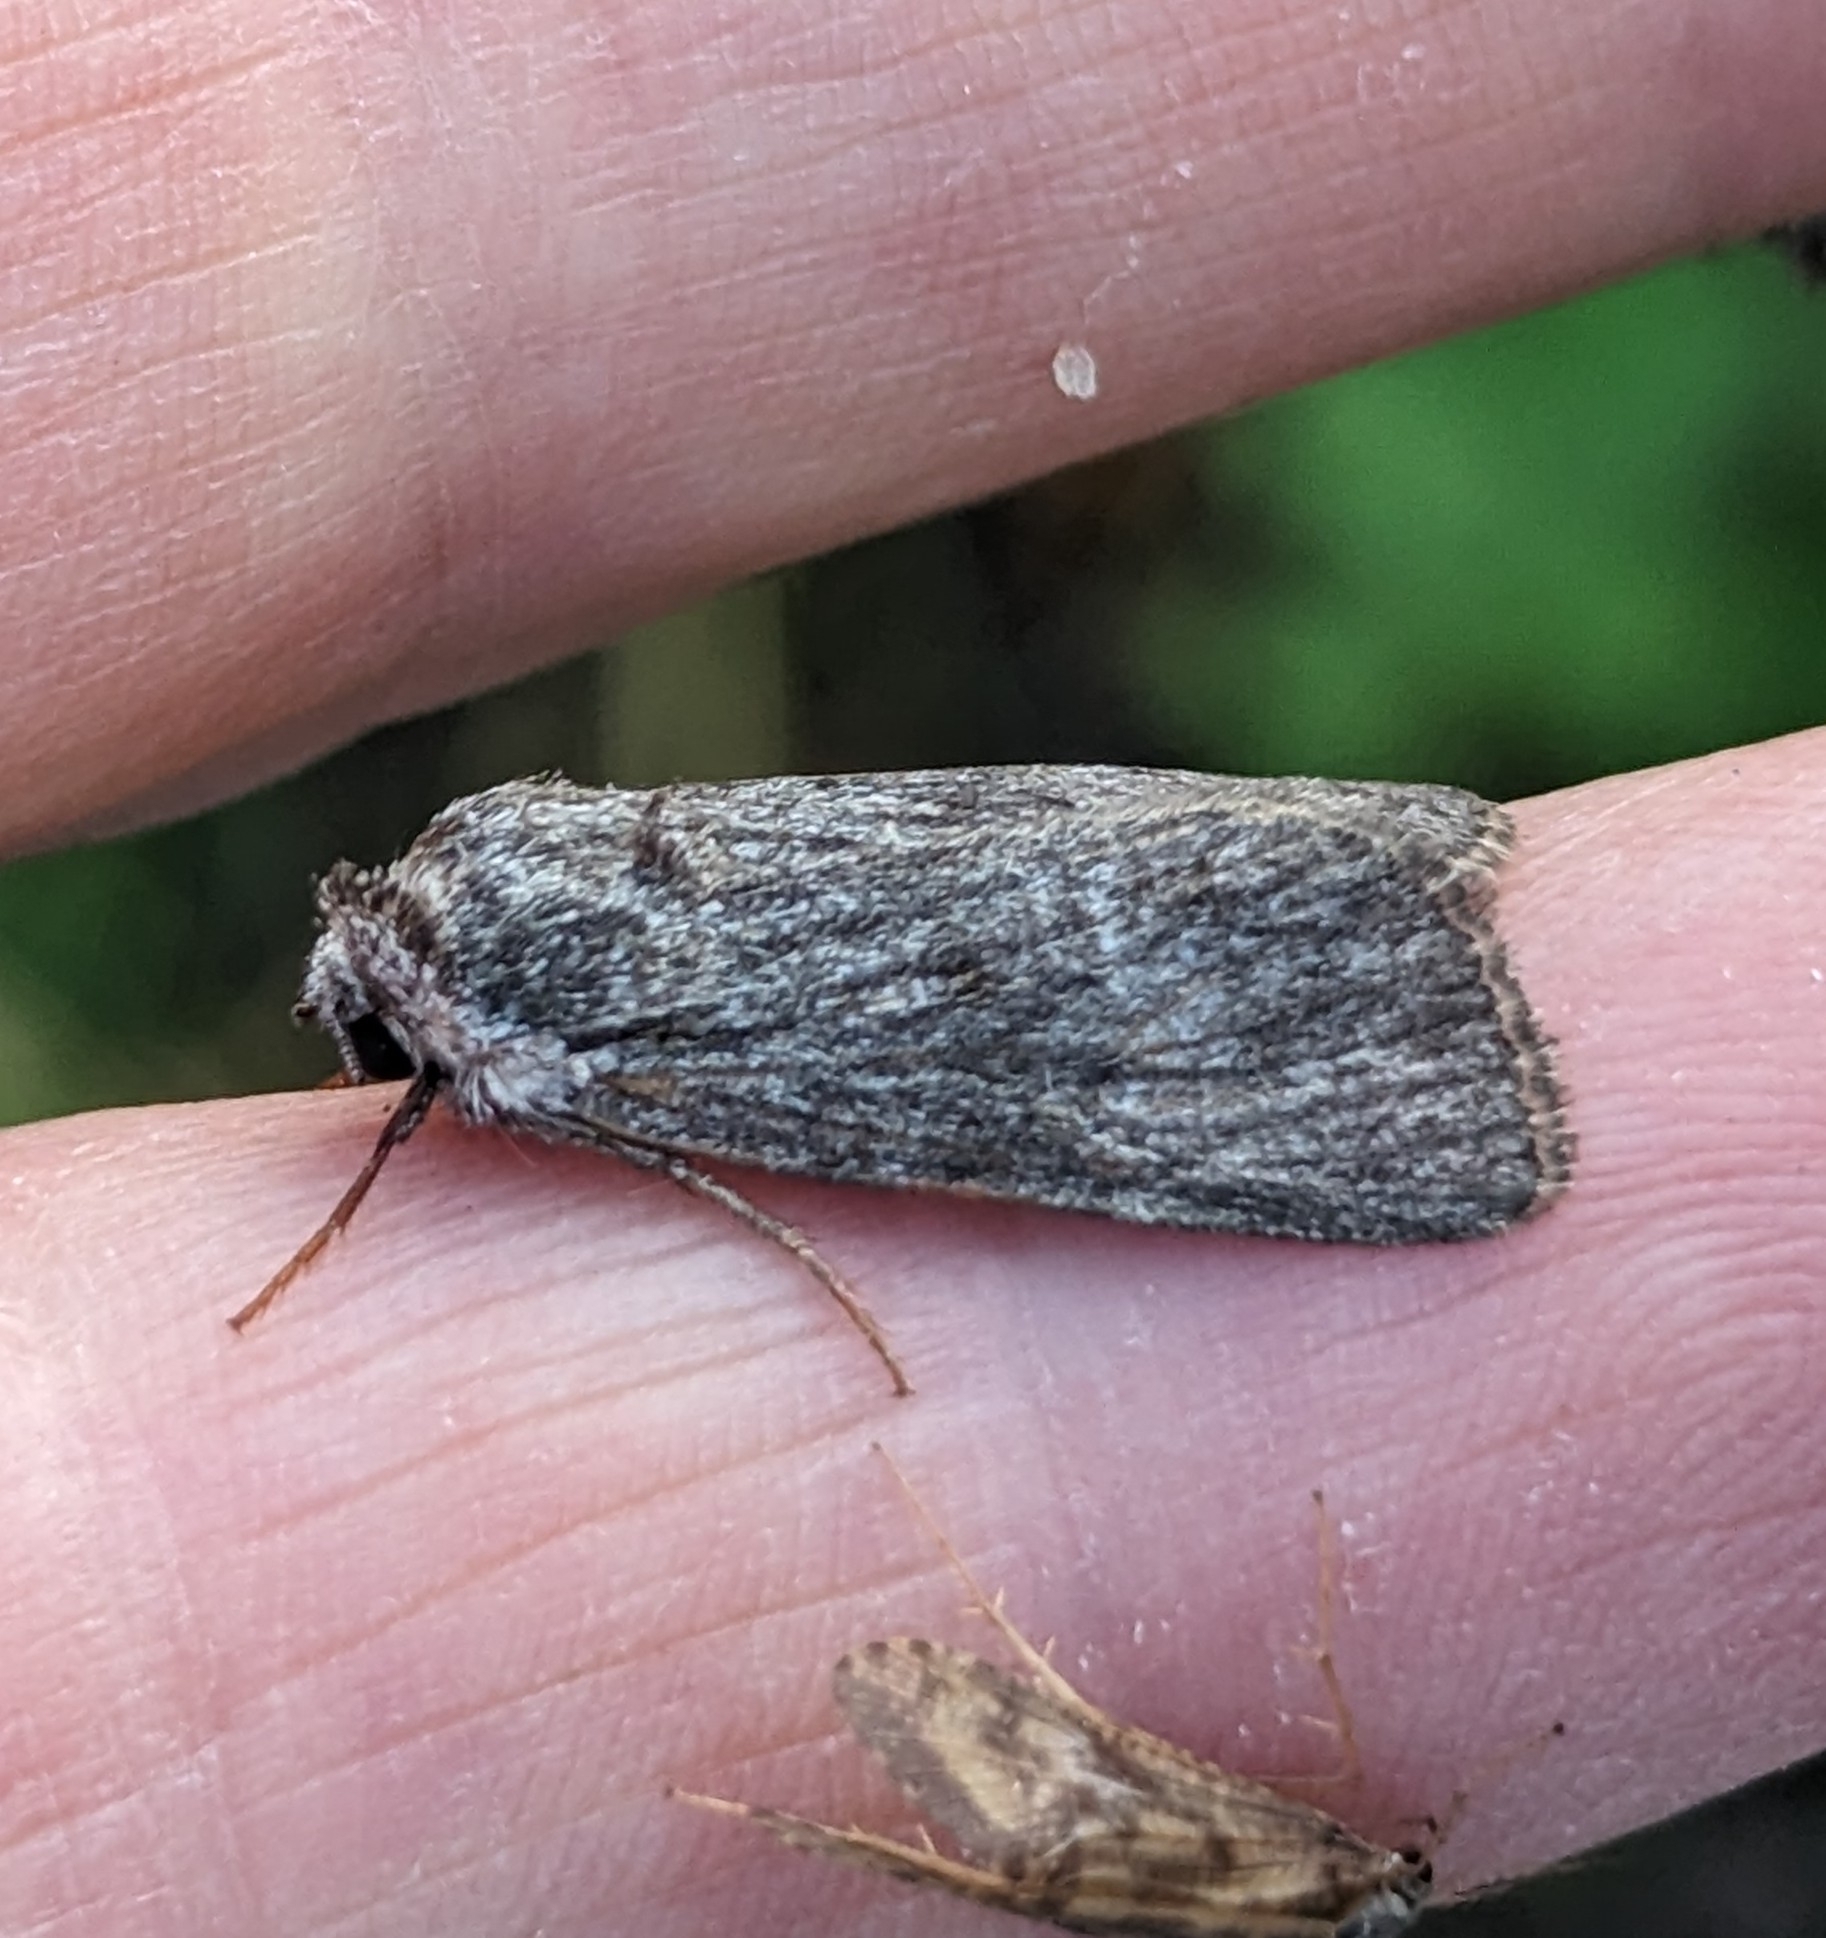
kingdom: Animalia
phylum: Arthropoda
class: Insecta
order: Lepidoptera
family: Noctuidae
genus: Sympistis
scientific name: Sympistis major
